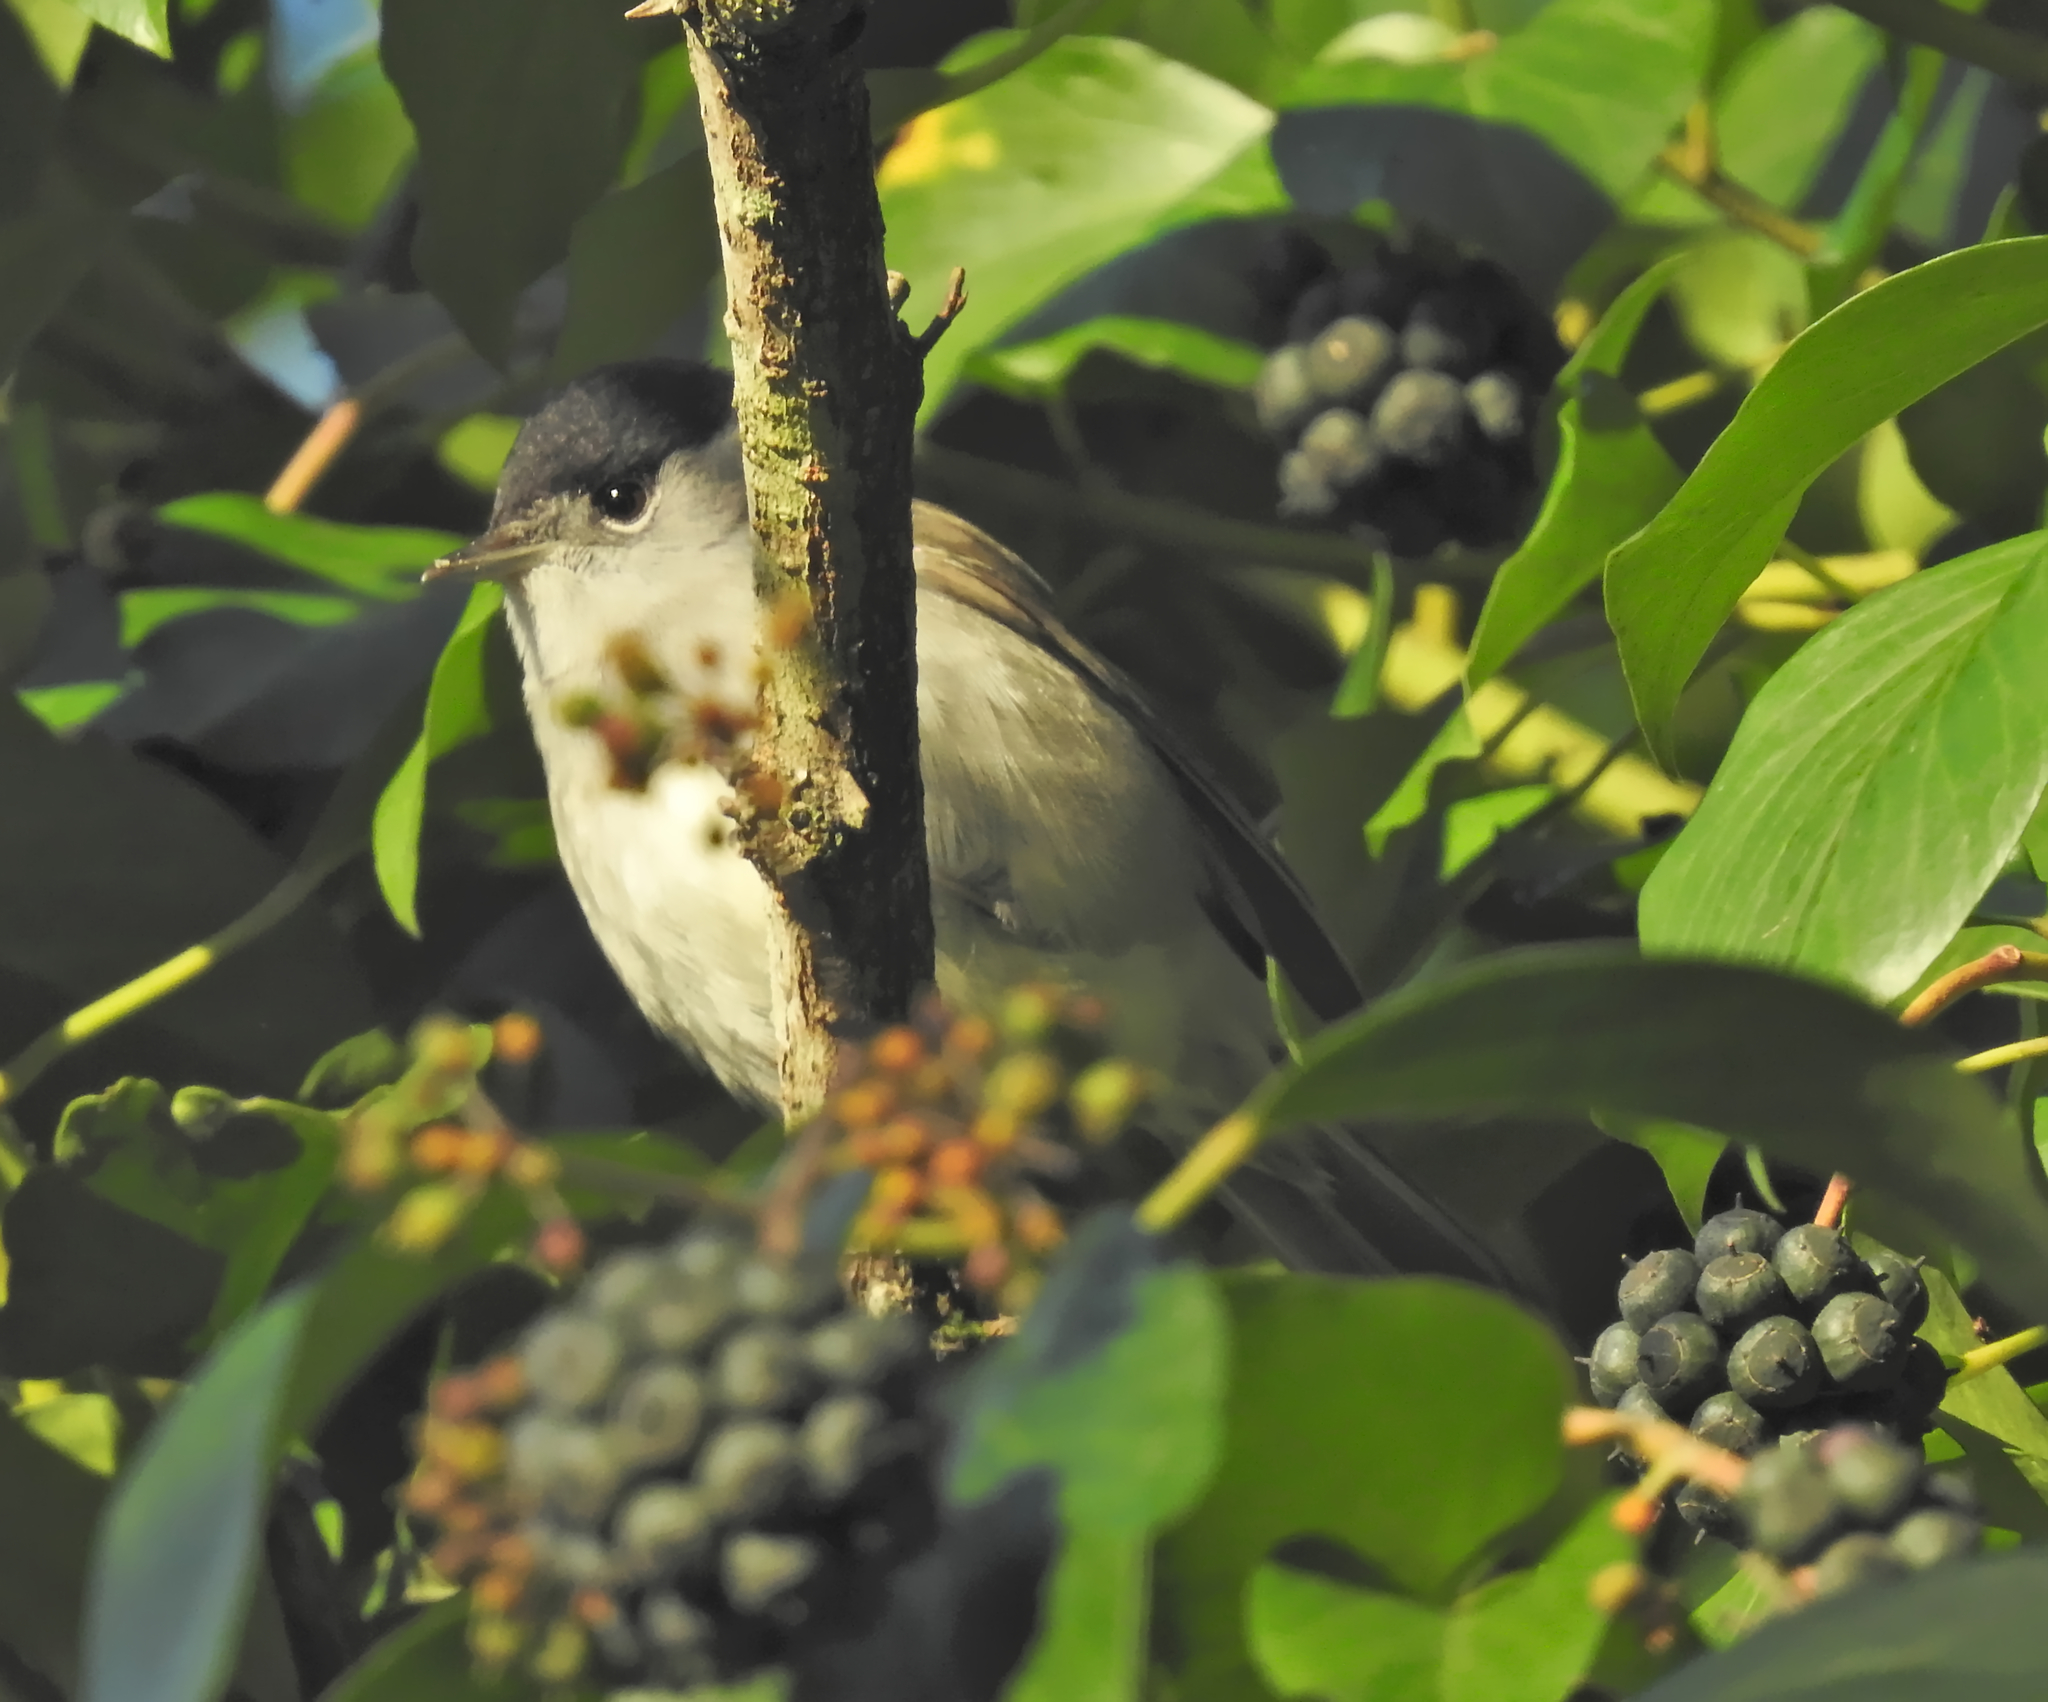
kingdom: Animalia
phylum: Chordata
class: Aves
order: Passeriformes
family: Sylviidae
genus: Sylvia
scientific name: Sylvia atricapilla
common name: Eurasian blackcap
